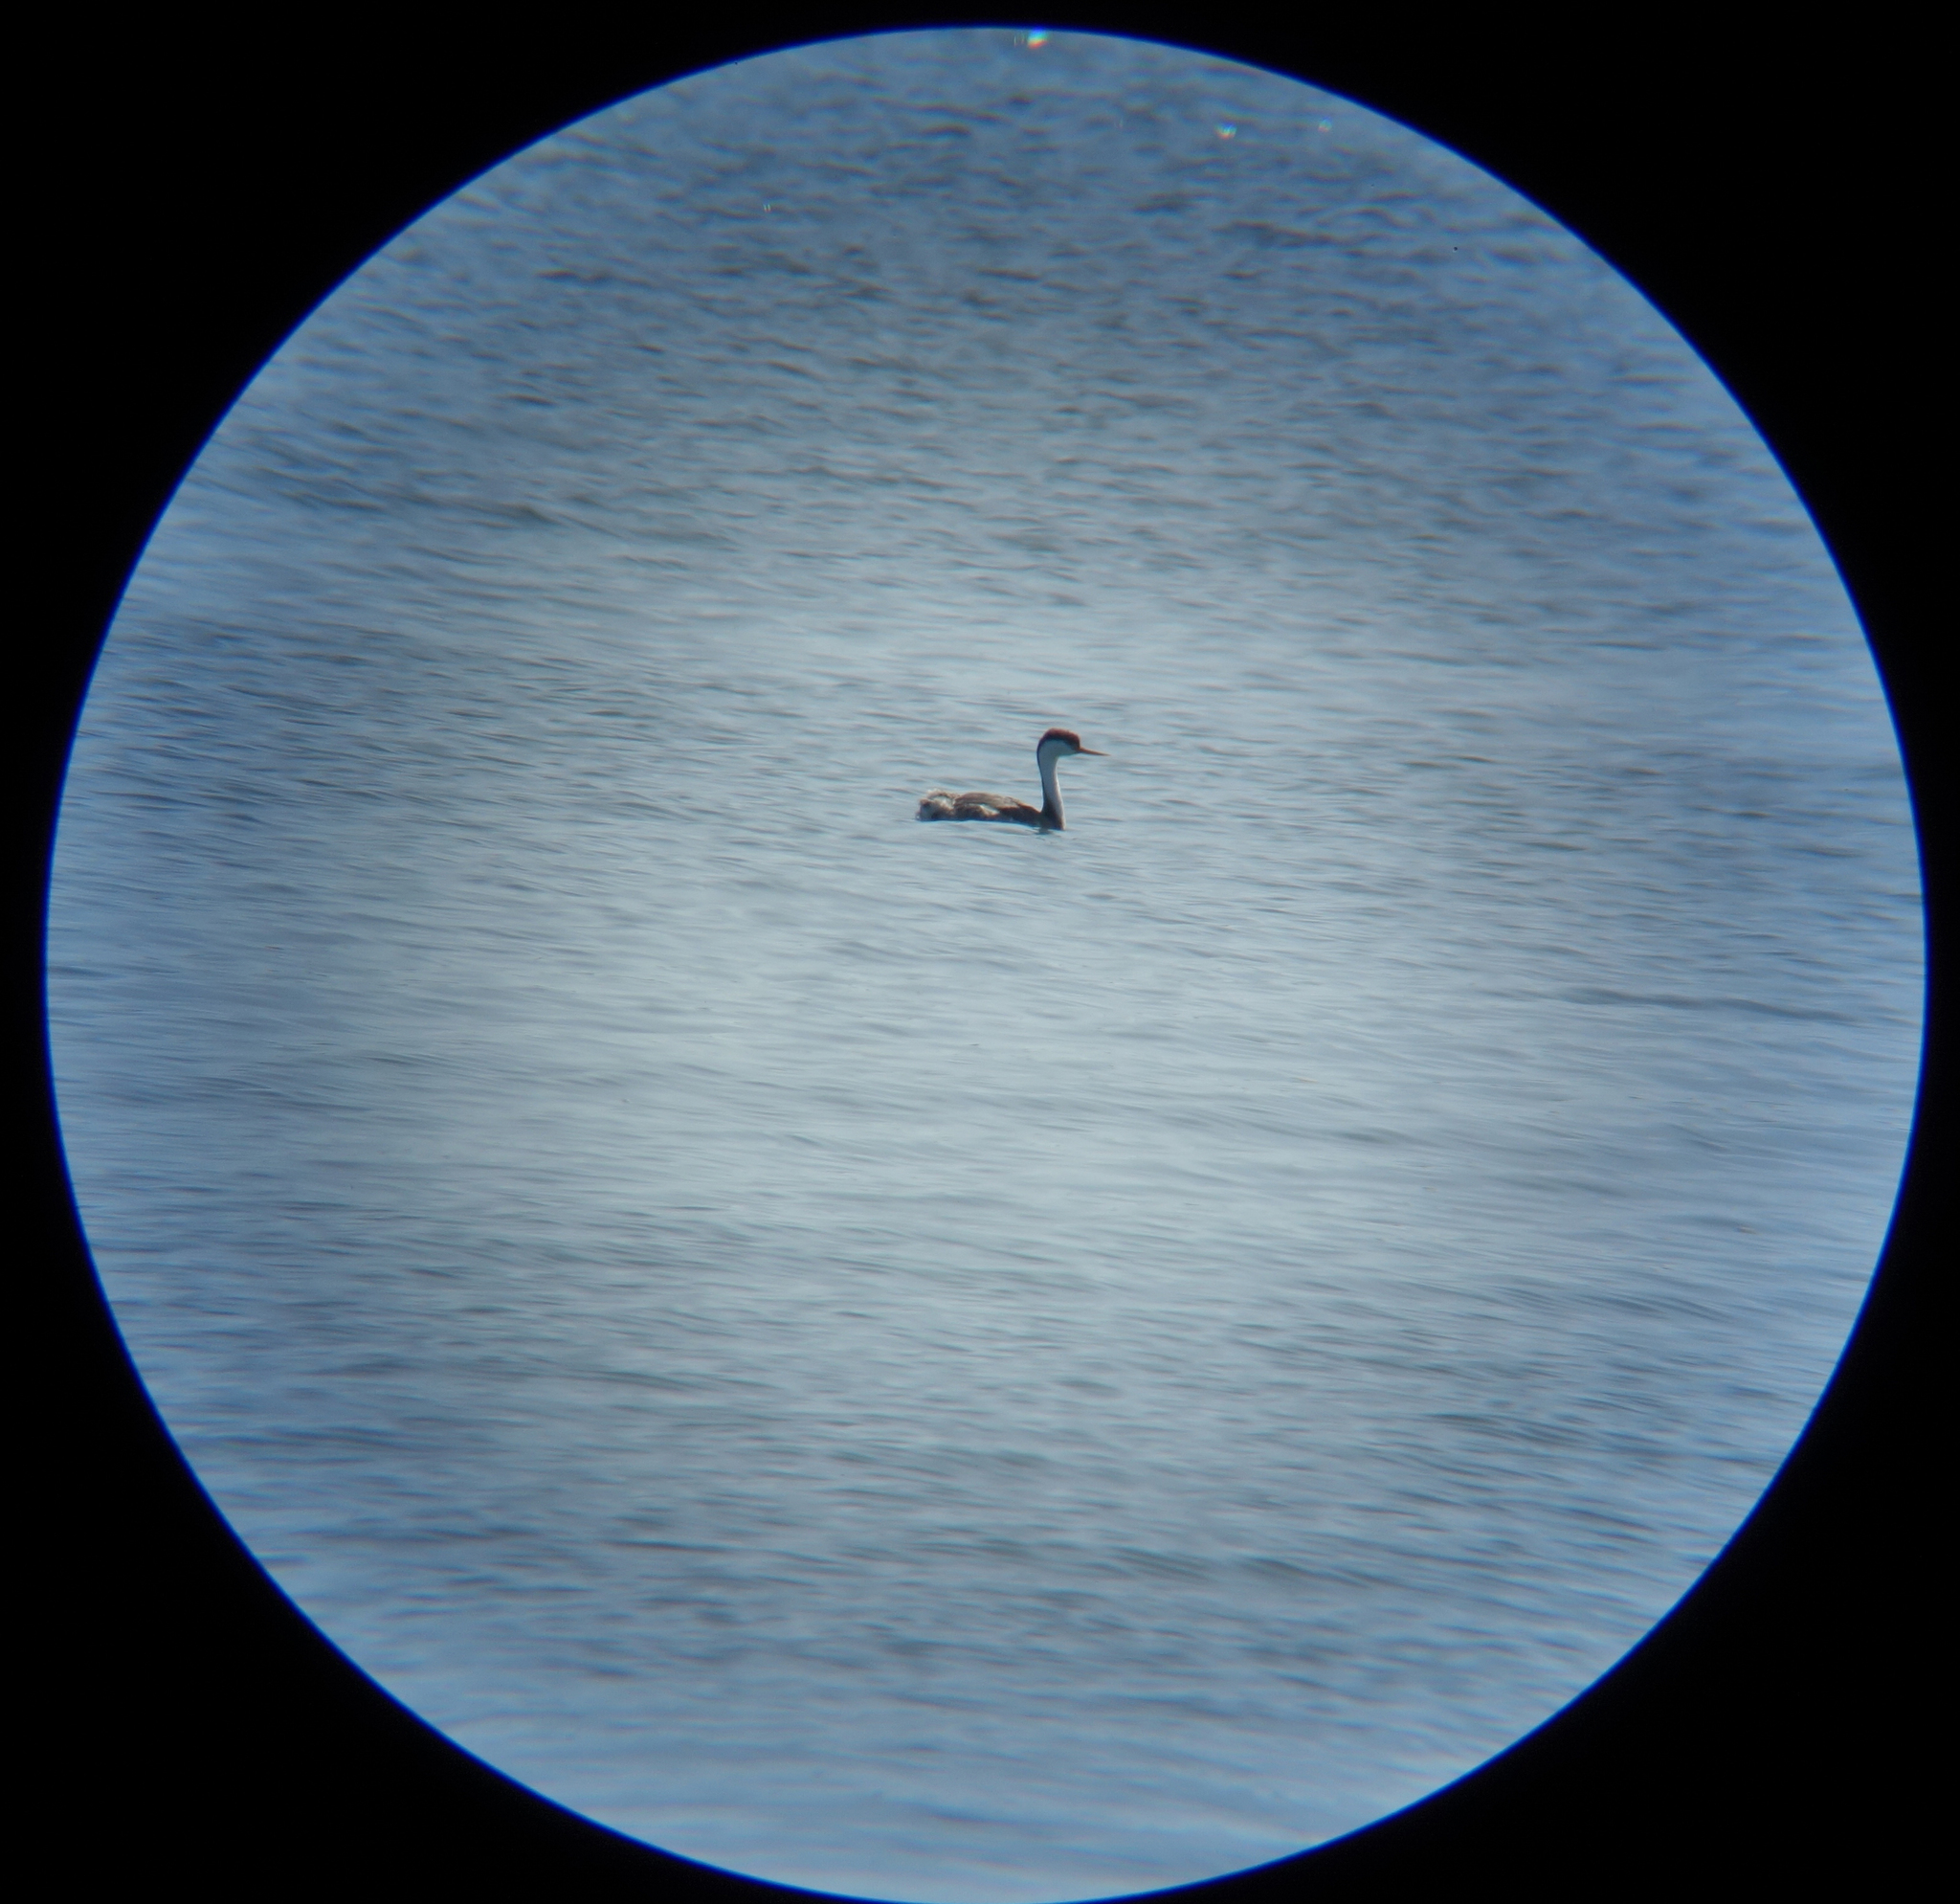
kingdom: Animalia
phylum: Chordata
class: Aves
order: Podicipediformes
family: Podicipedidae
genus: Aechmophorus
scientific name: Aechmophorus occidentalis
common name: Western grebe
